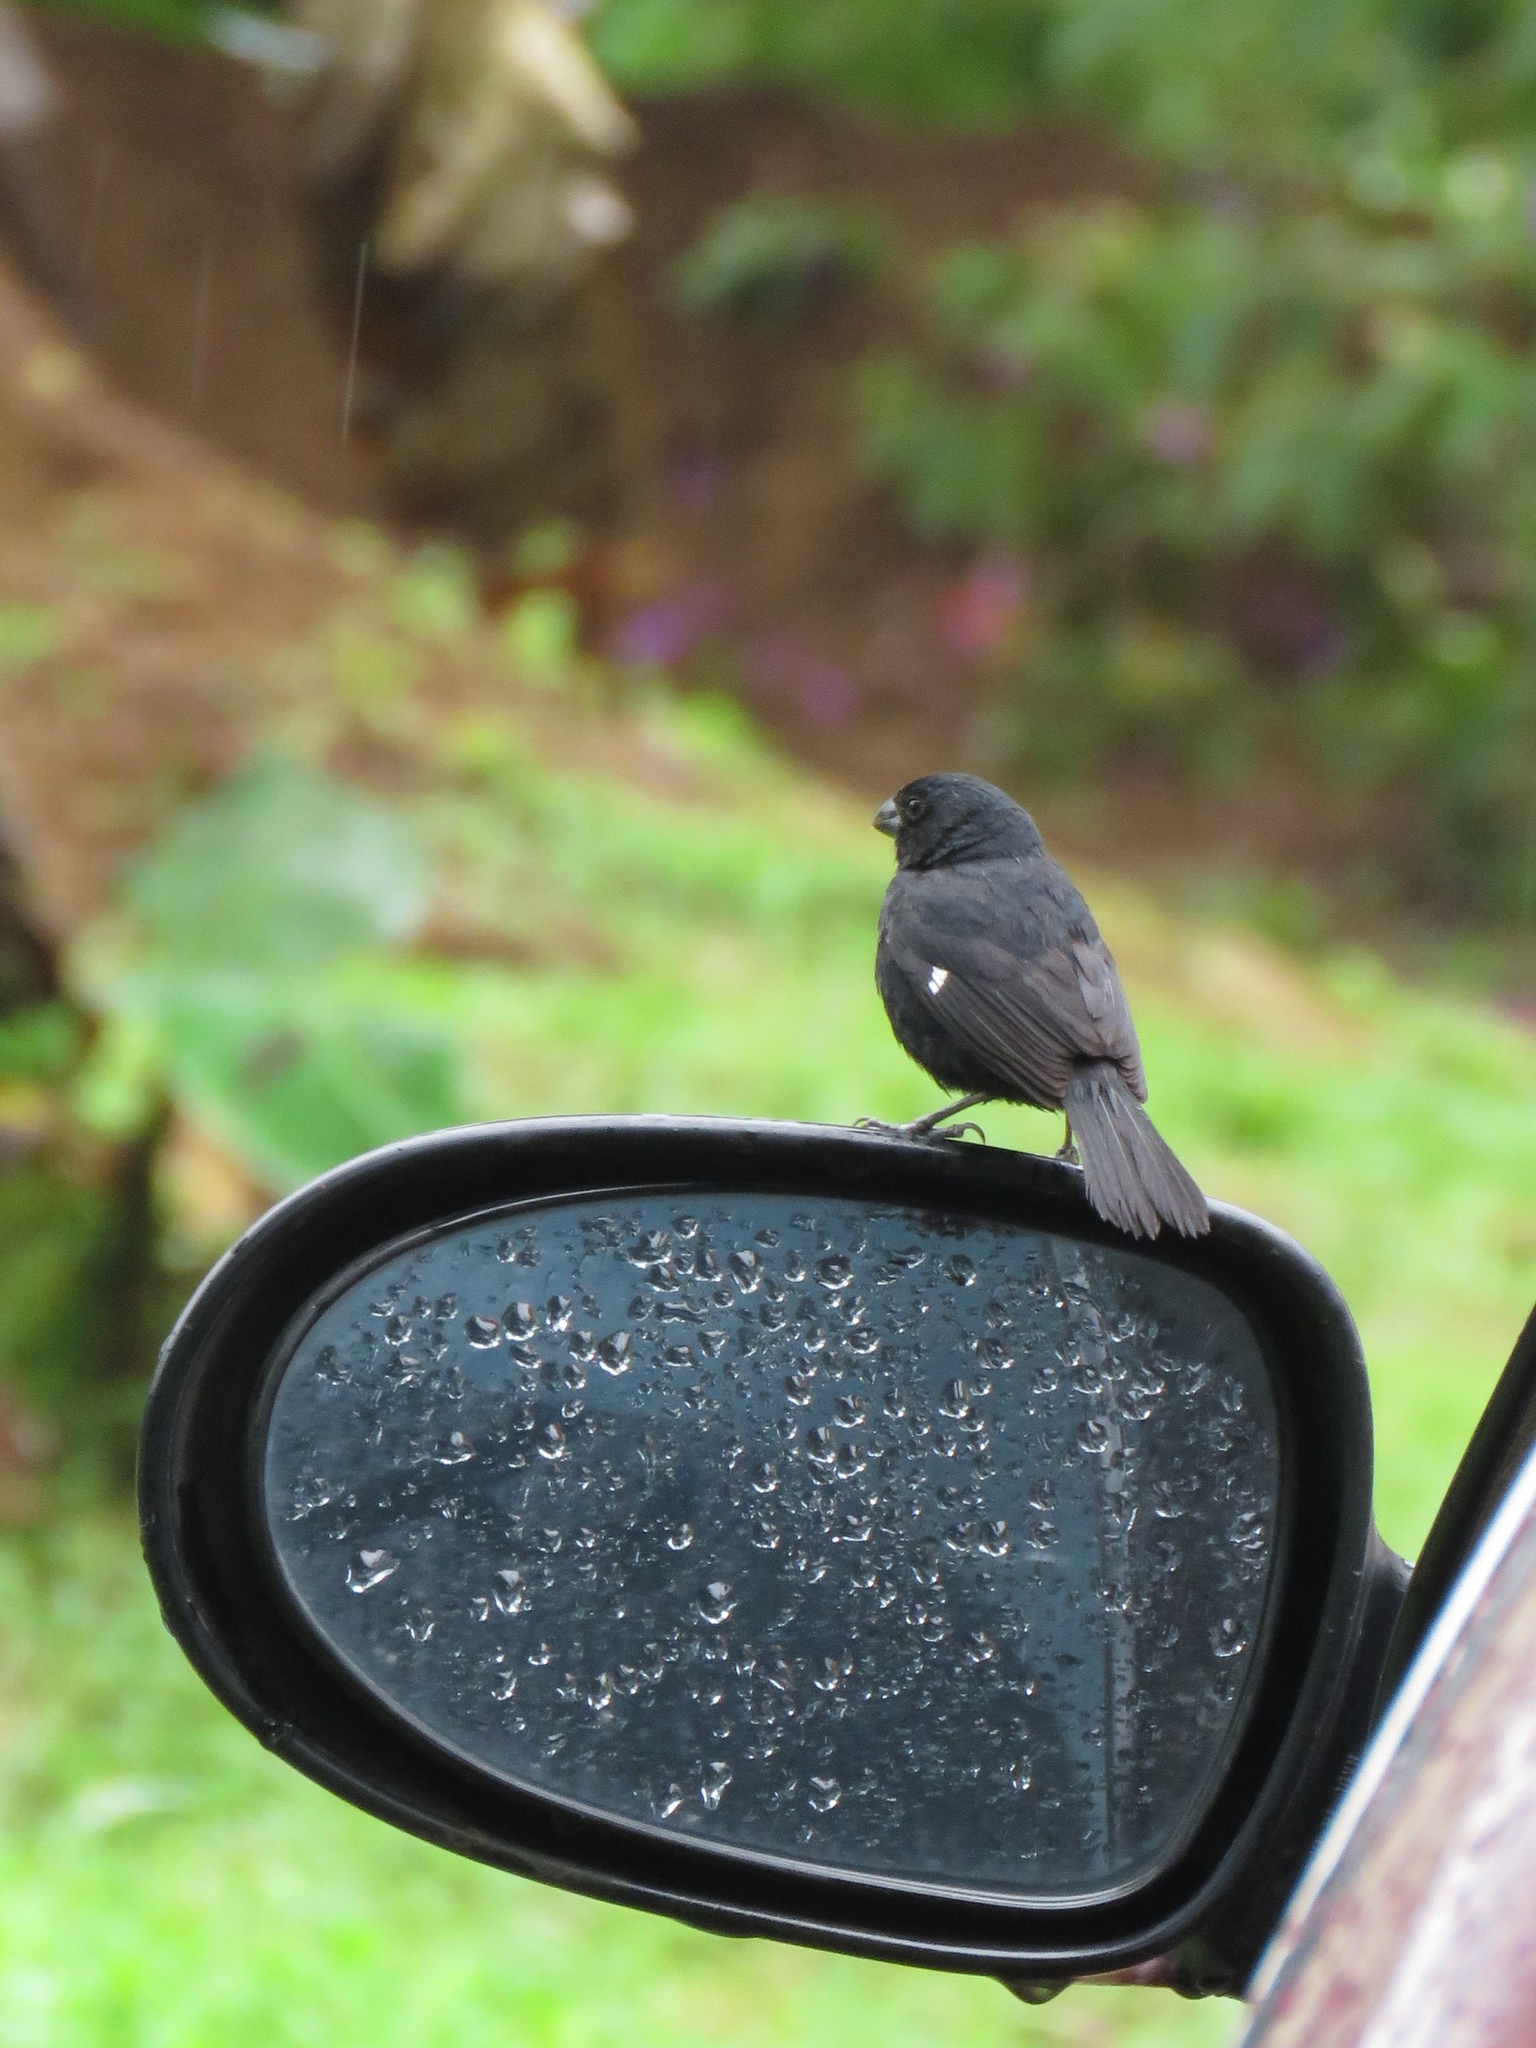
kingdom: Animalia
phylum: Chordata
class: Aves
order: Passeriformes
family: Thraupidae
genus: Sporophila
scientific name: Sporophila corvina
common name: Variable seedeater
